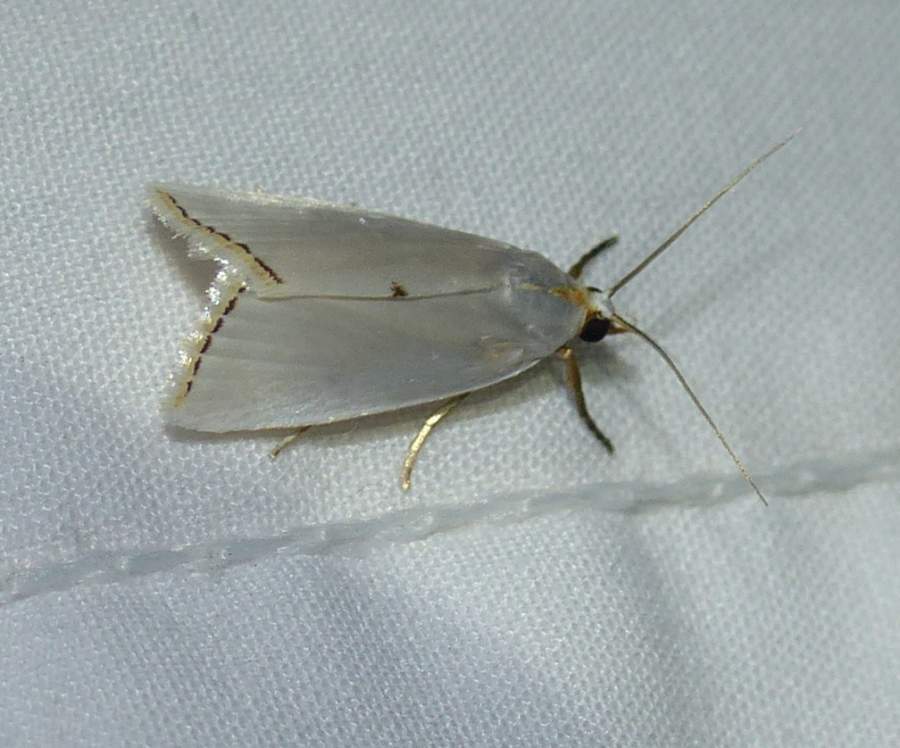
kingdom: Animalia
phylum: Arthropoda
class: Insecta
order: Lepidoptera
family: Crambidae
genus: Argyria
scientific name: Argyria nivalis
